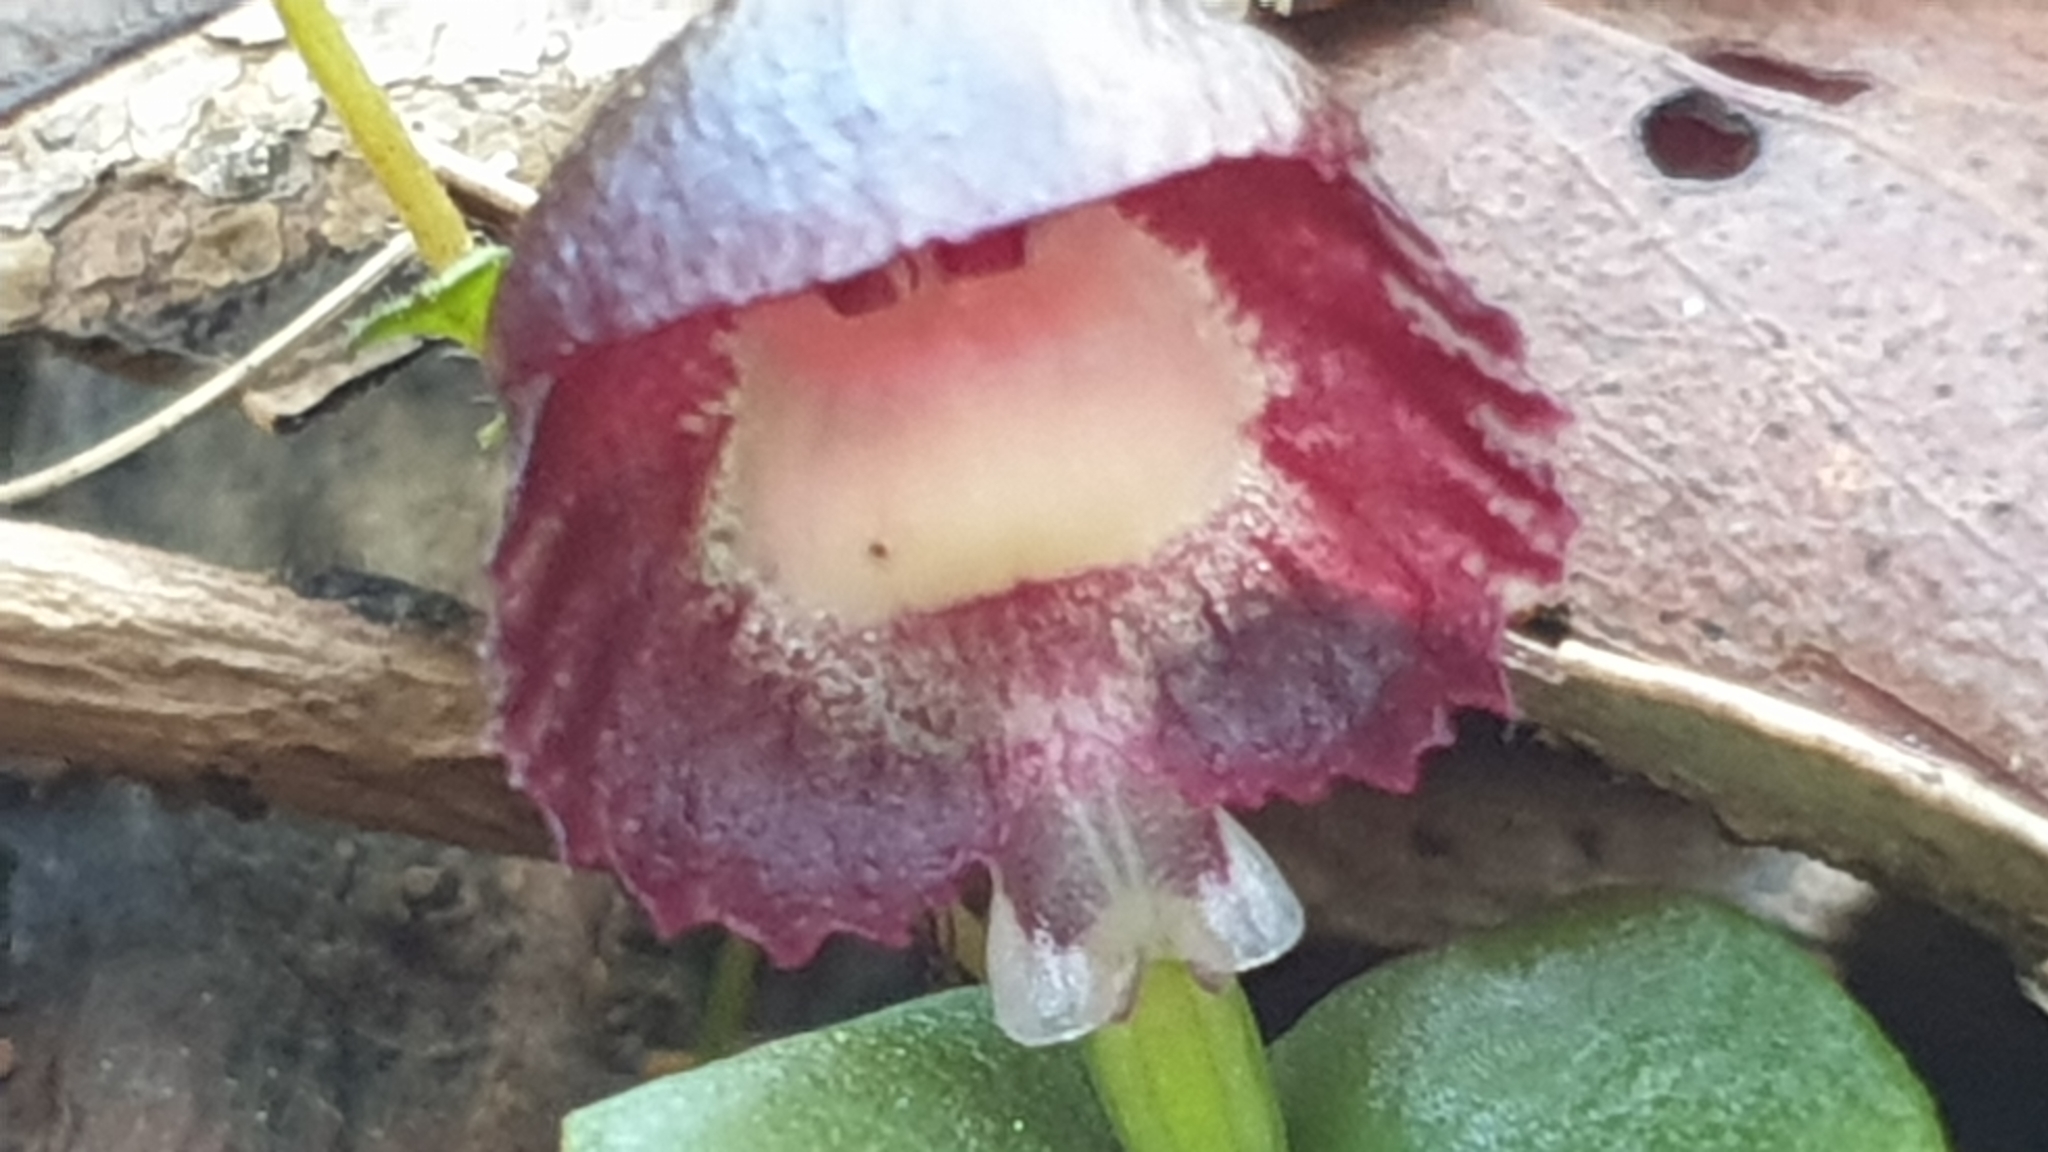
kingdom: Plantae
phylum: Tracheophyta
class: Liliopsida
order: Asparagales
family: Orchidaceae
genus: Corybas
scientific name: Corybas diemenicus
